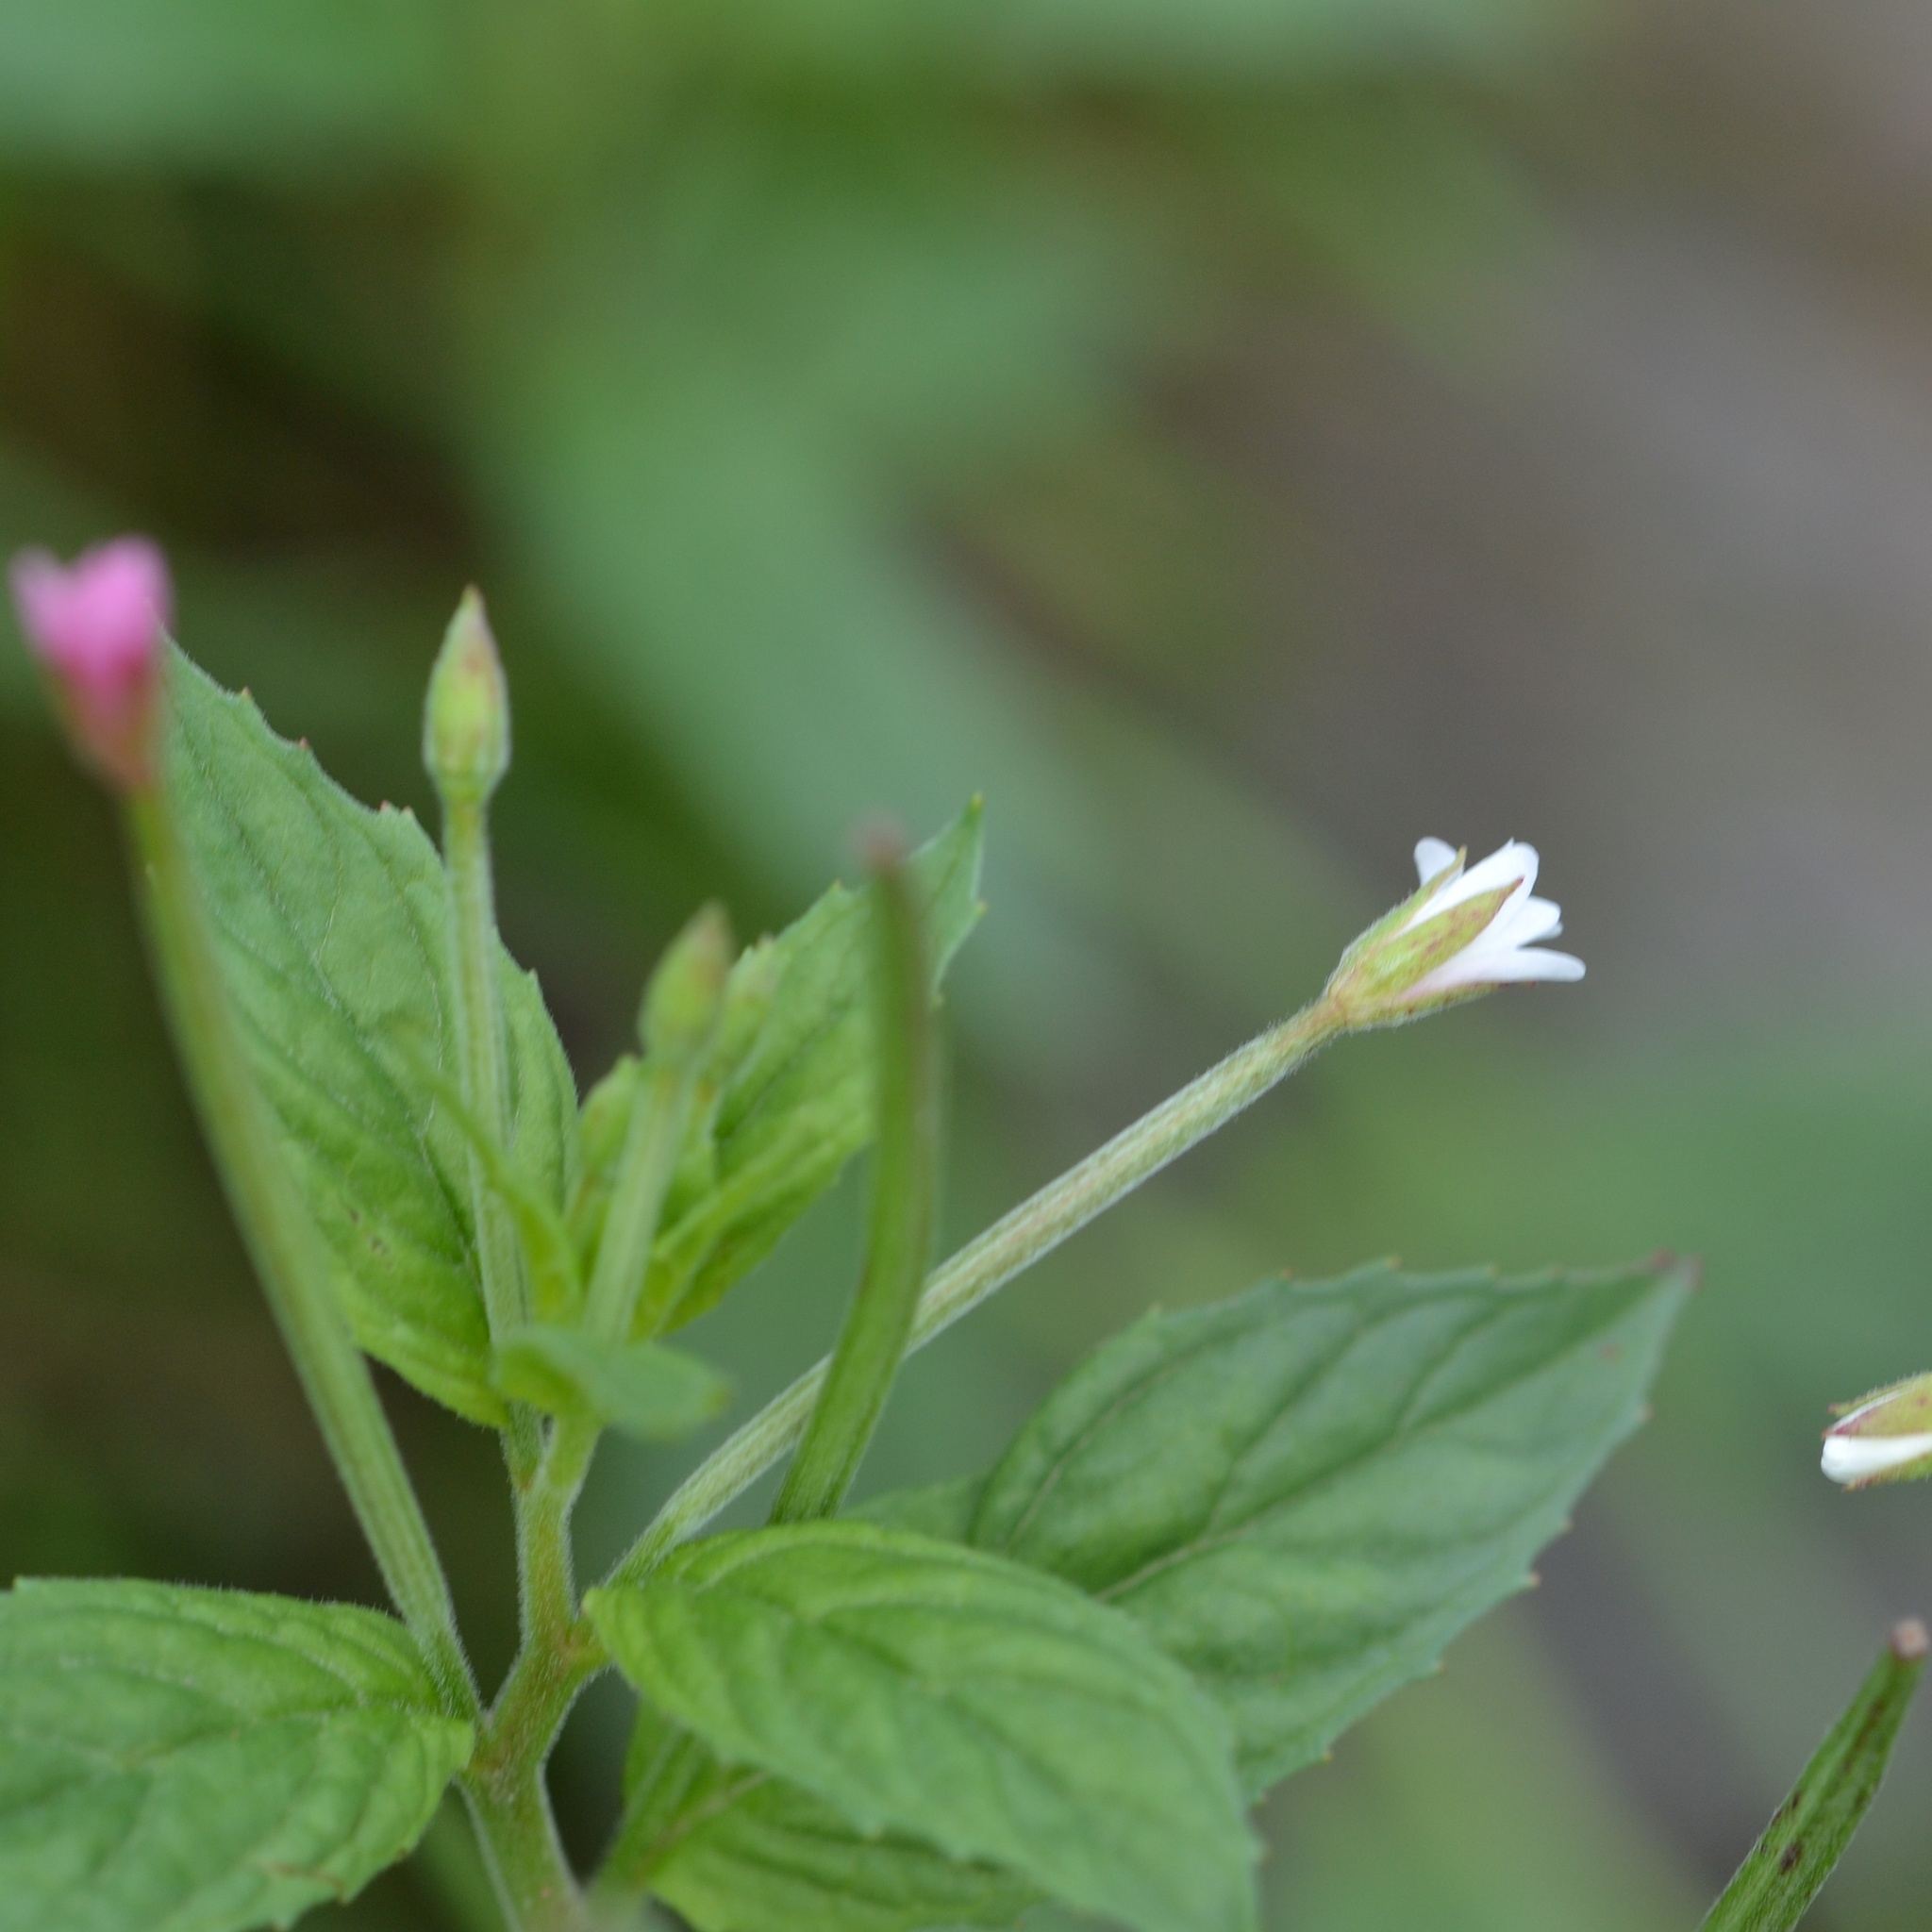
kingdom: Plantae
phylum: Tracheophyta
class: Magnoliopsida
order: Myrtales
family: Onagraceae
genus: Epilobium
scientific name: Epilobium roseum
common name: Pale willowherb
